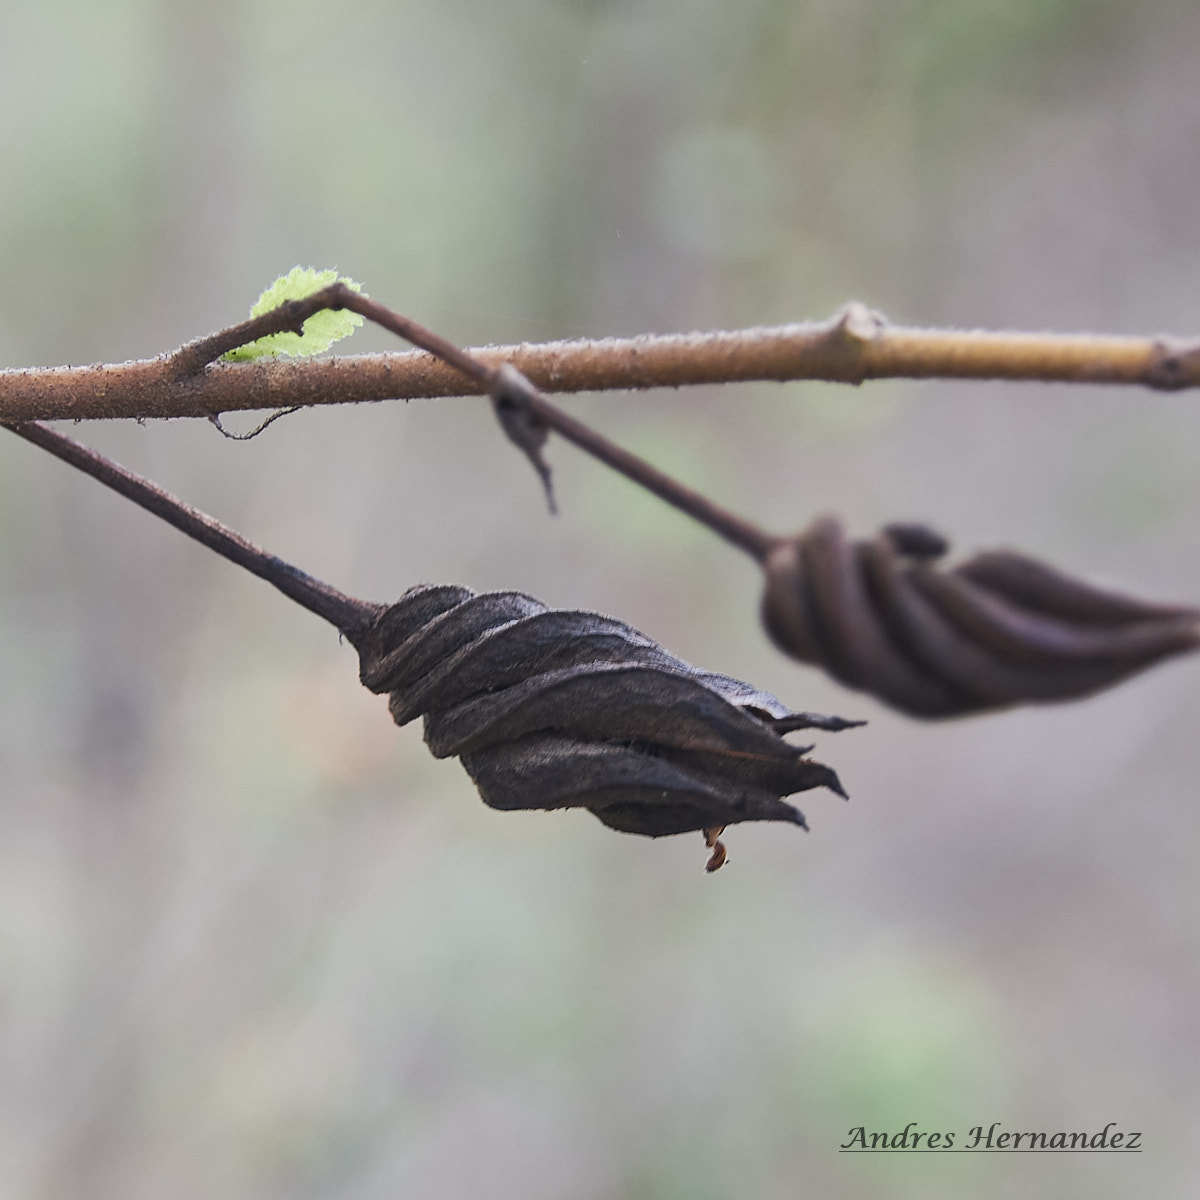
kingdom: Plantae
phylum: Tracheophyta
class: Magnoliopsida
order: Malvales
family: Malvaceae
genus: Helicteres
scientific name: Helicteres guazumifolia
